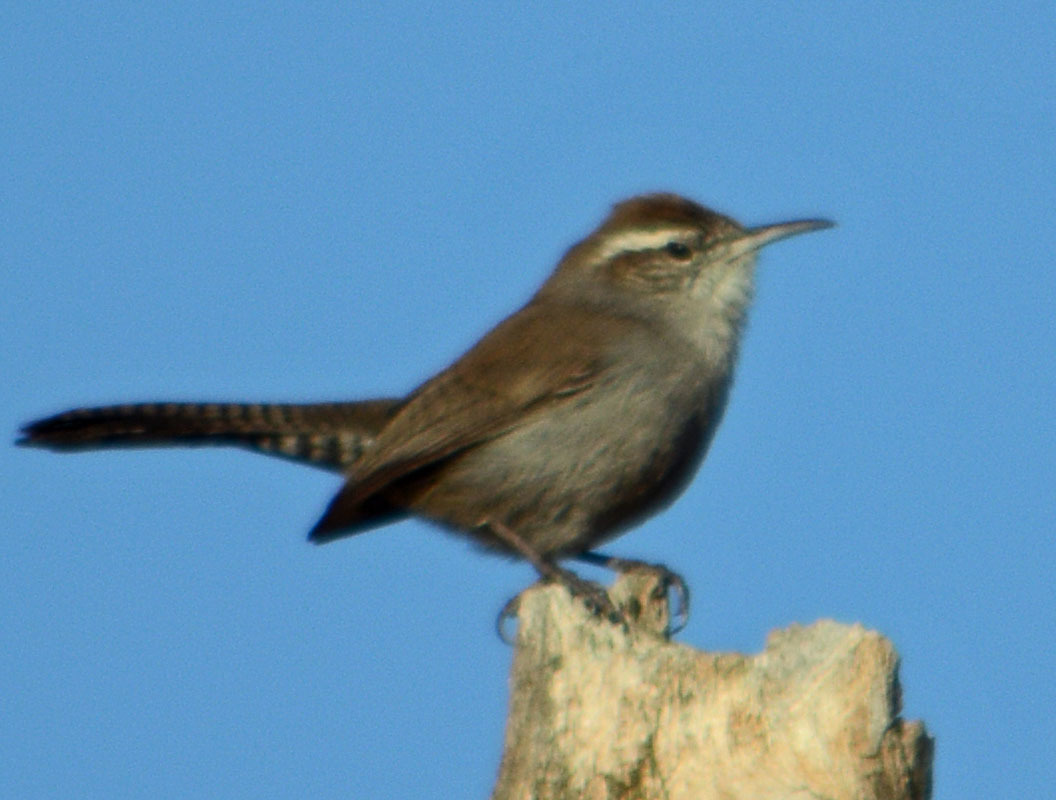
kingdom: Animalia
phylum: Chordata
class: Aves
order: Passeriformes
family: Troglodytidae
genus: Thryomanes
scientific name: Thryomanes bewickii
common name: Bewick's wren
